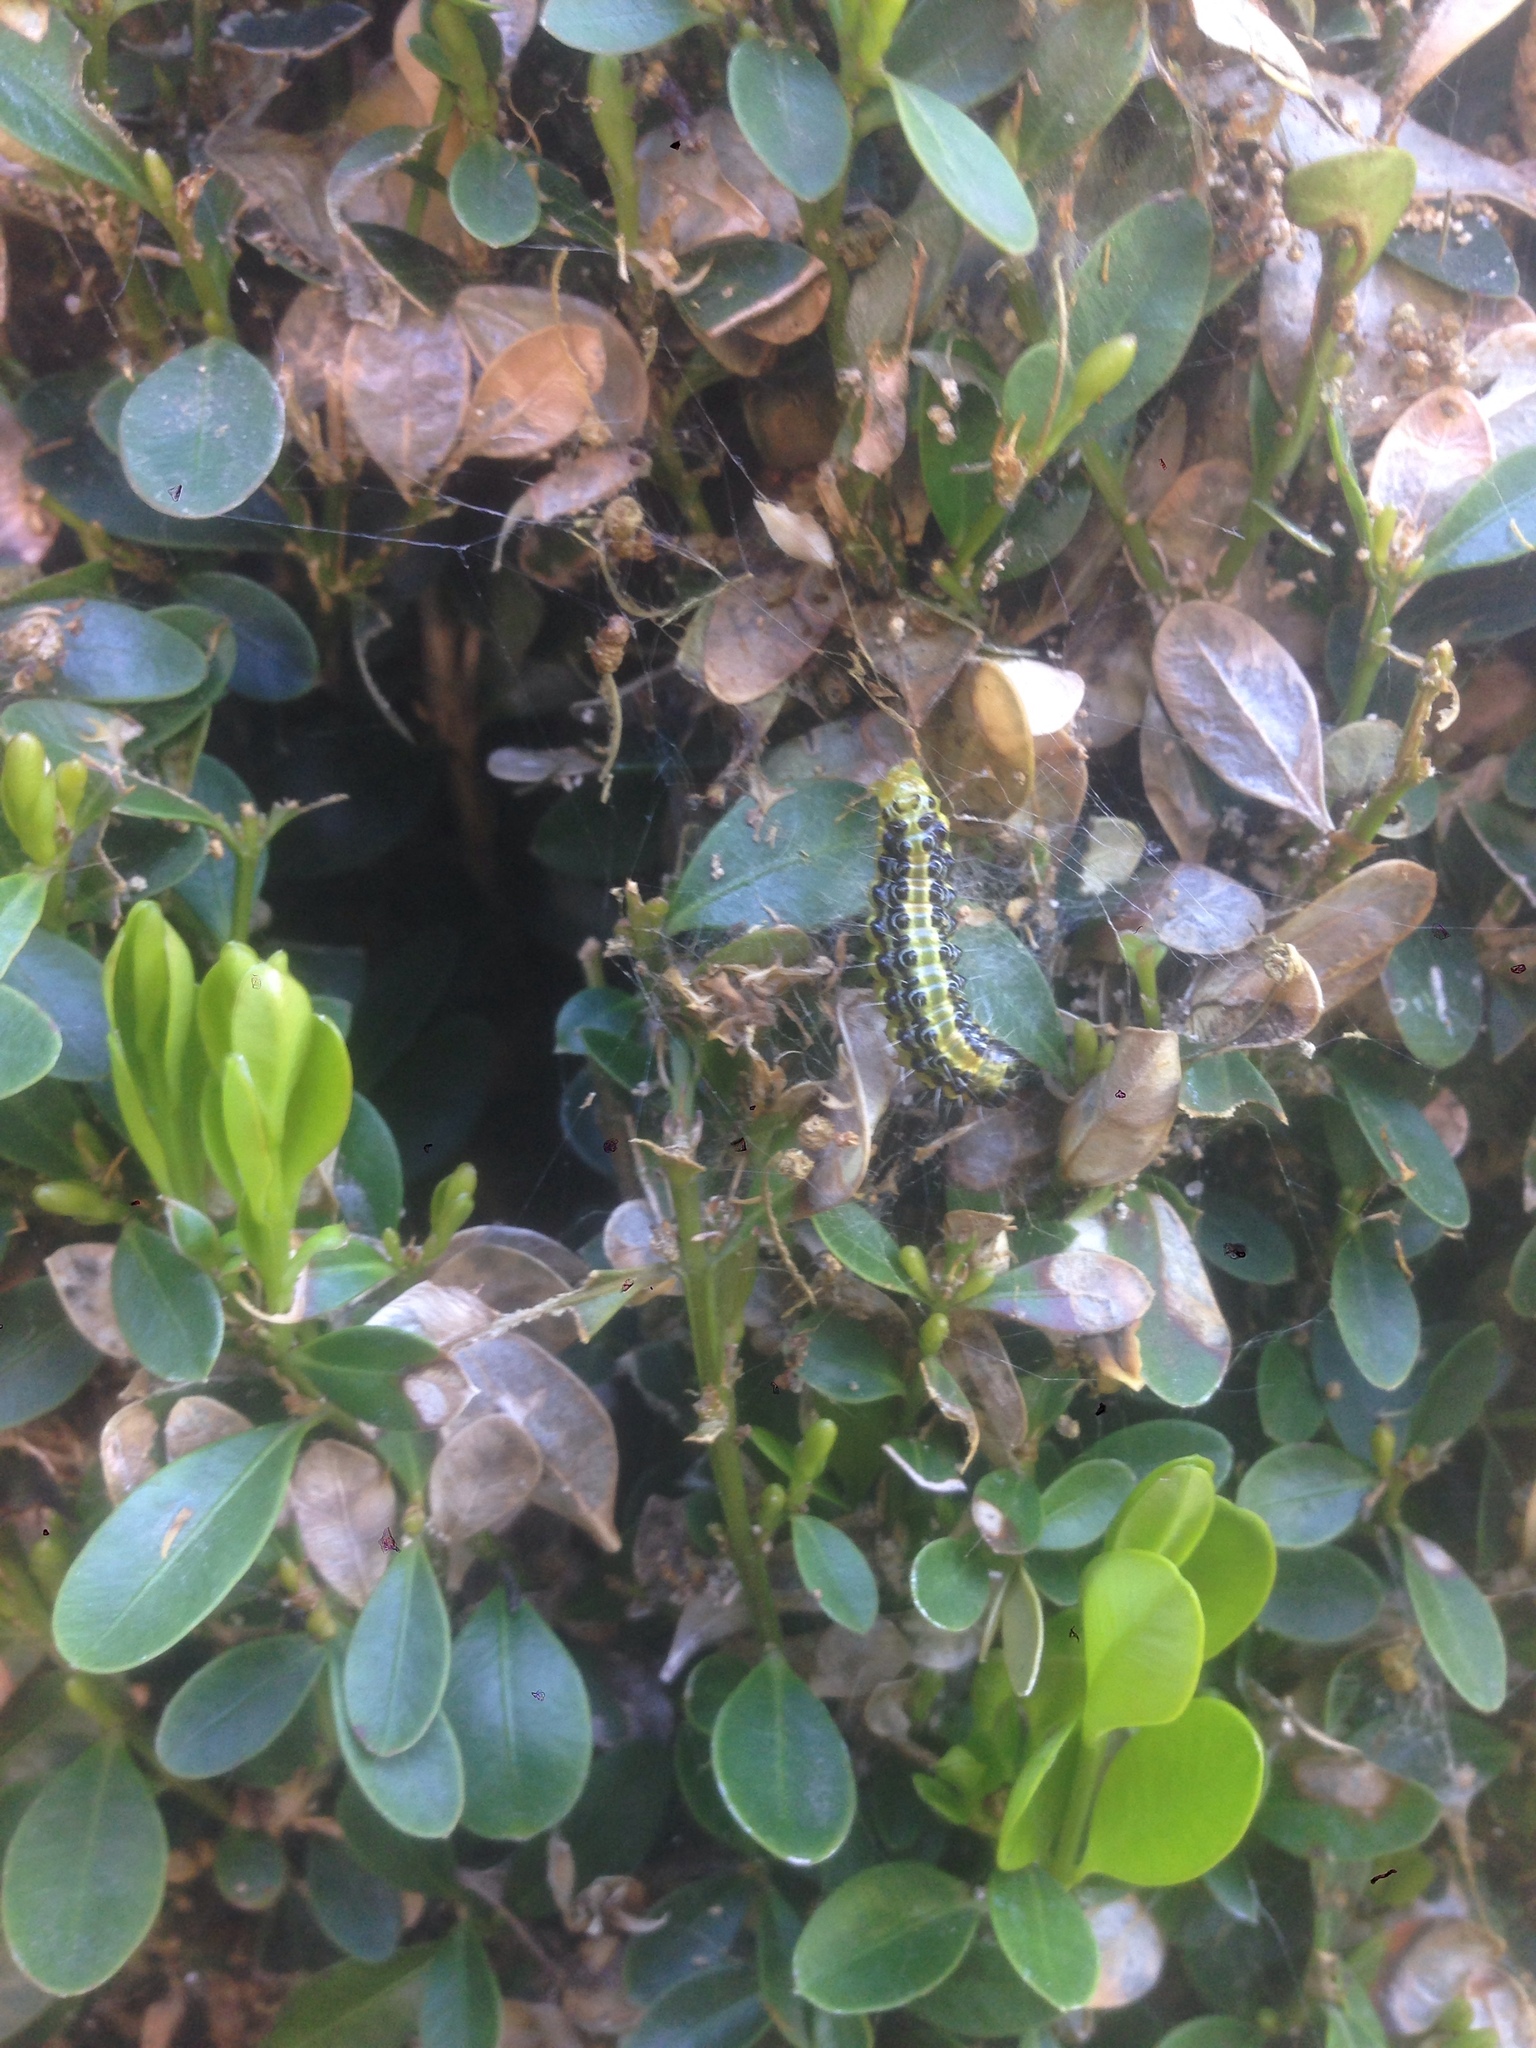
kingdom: Animalia
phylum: Arthropoda
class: Insecta
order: Lepidoptera
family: Crambidae
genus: Cydalima
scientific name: Cydalima perspectalis
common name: Box tree moth
